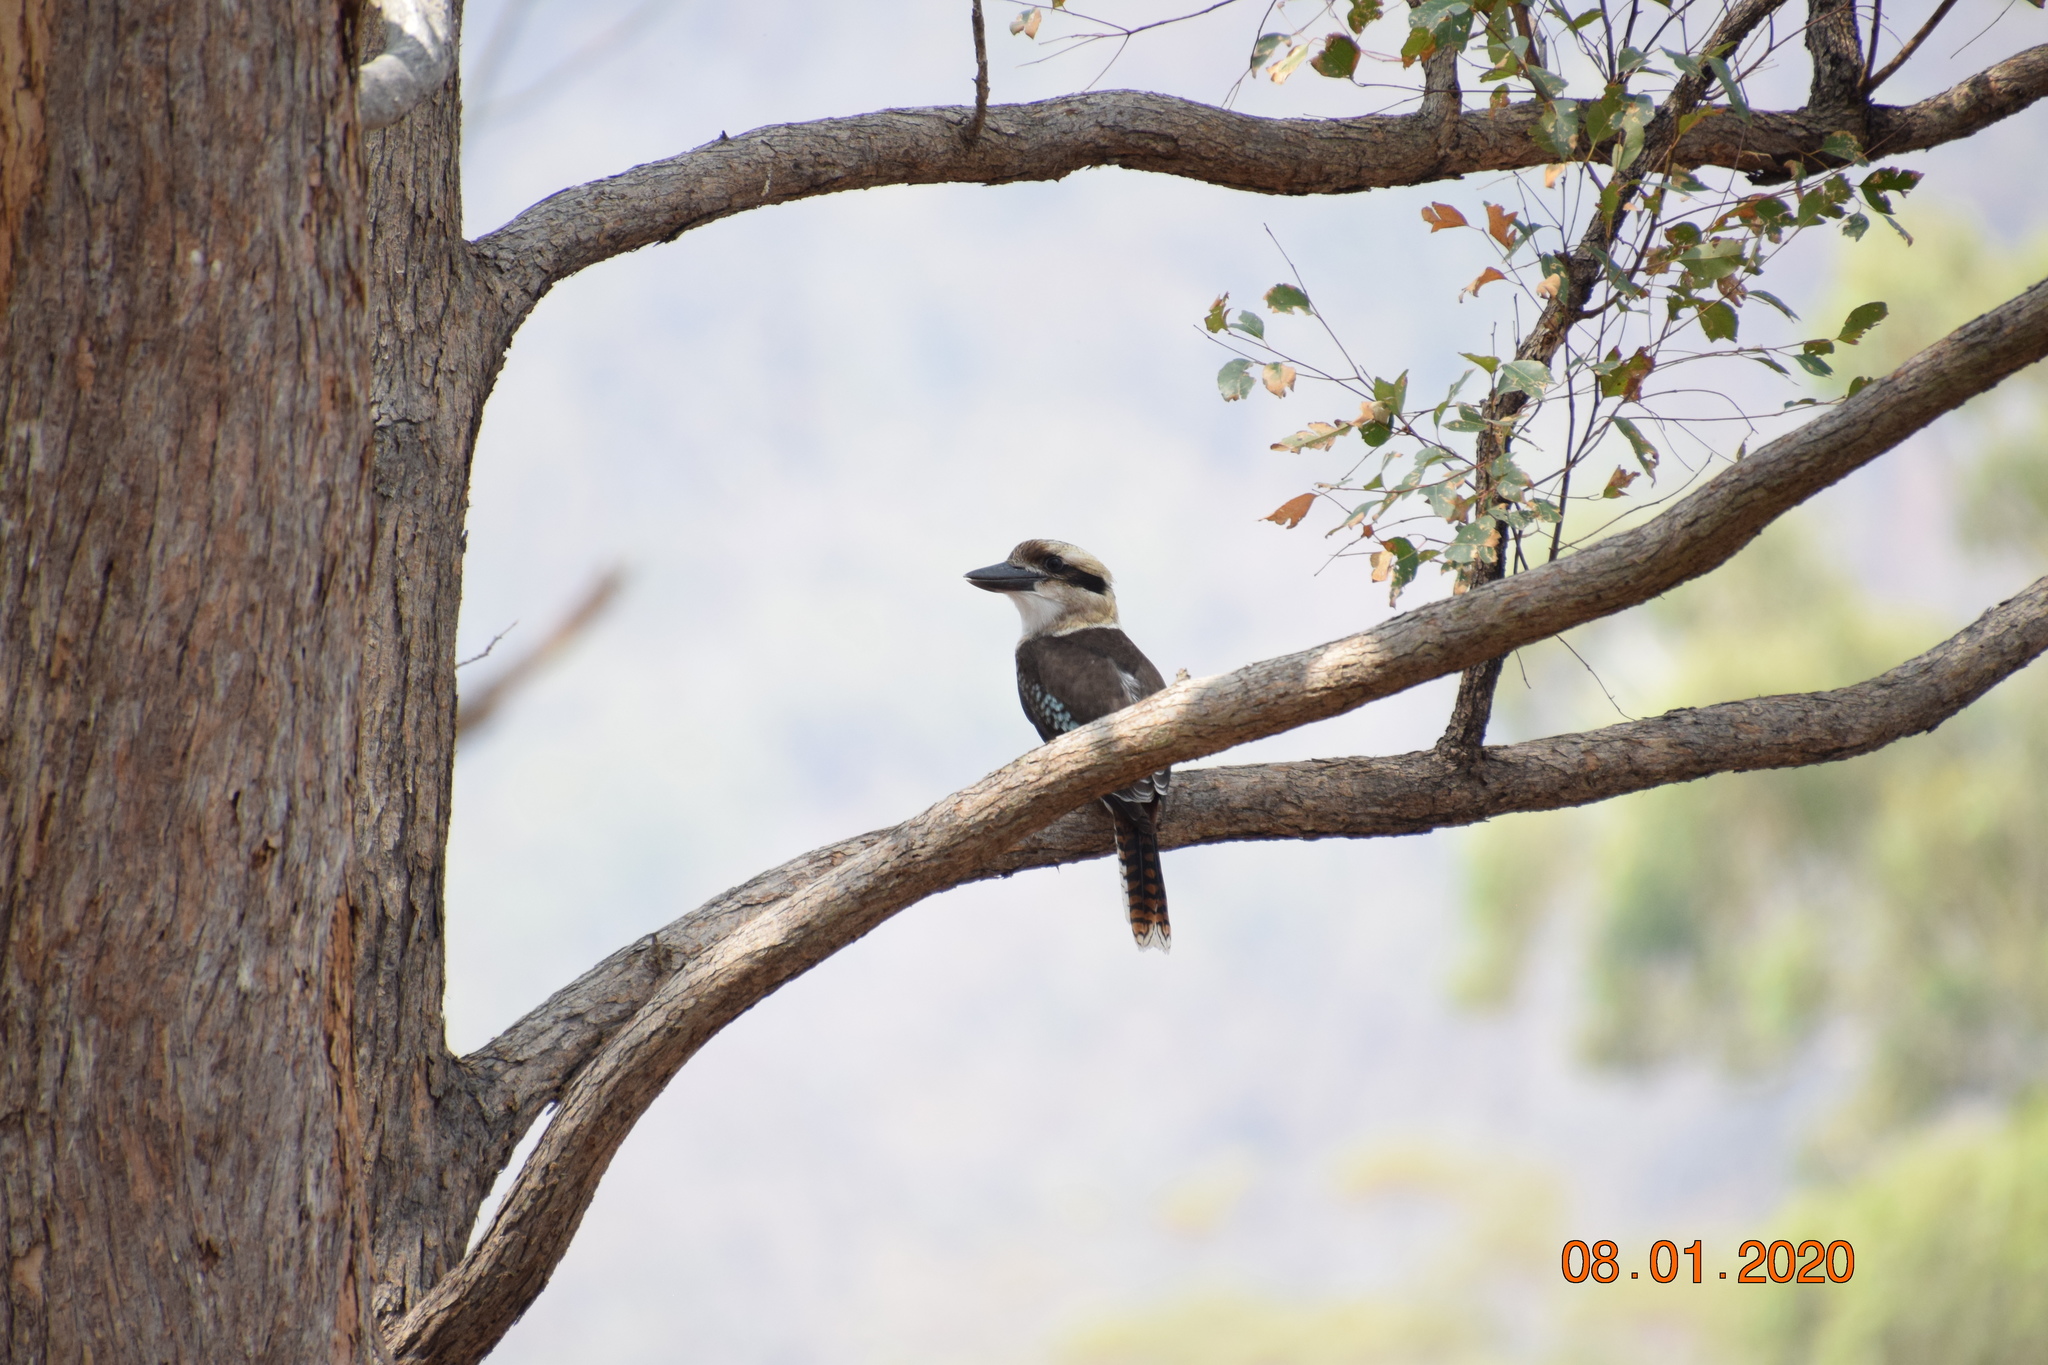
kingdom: Animalia
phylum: Chordata
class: Aves
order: Coraciiformes
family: Alcedinidae
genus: Dacelo
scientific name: Dacelo novaeguineae
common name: Laughing kookaburra
